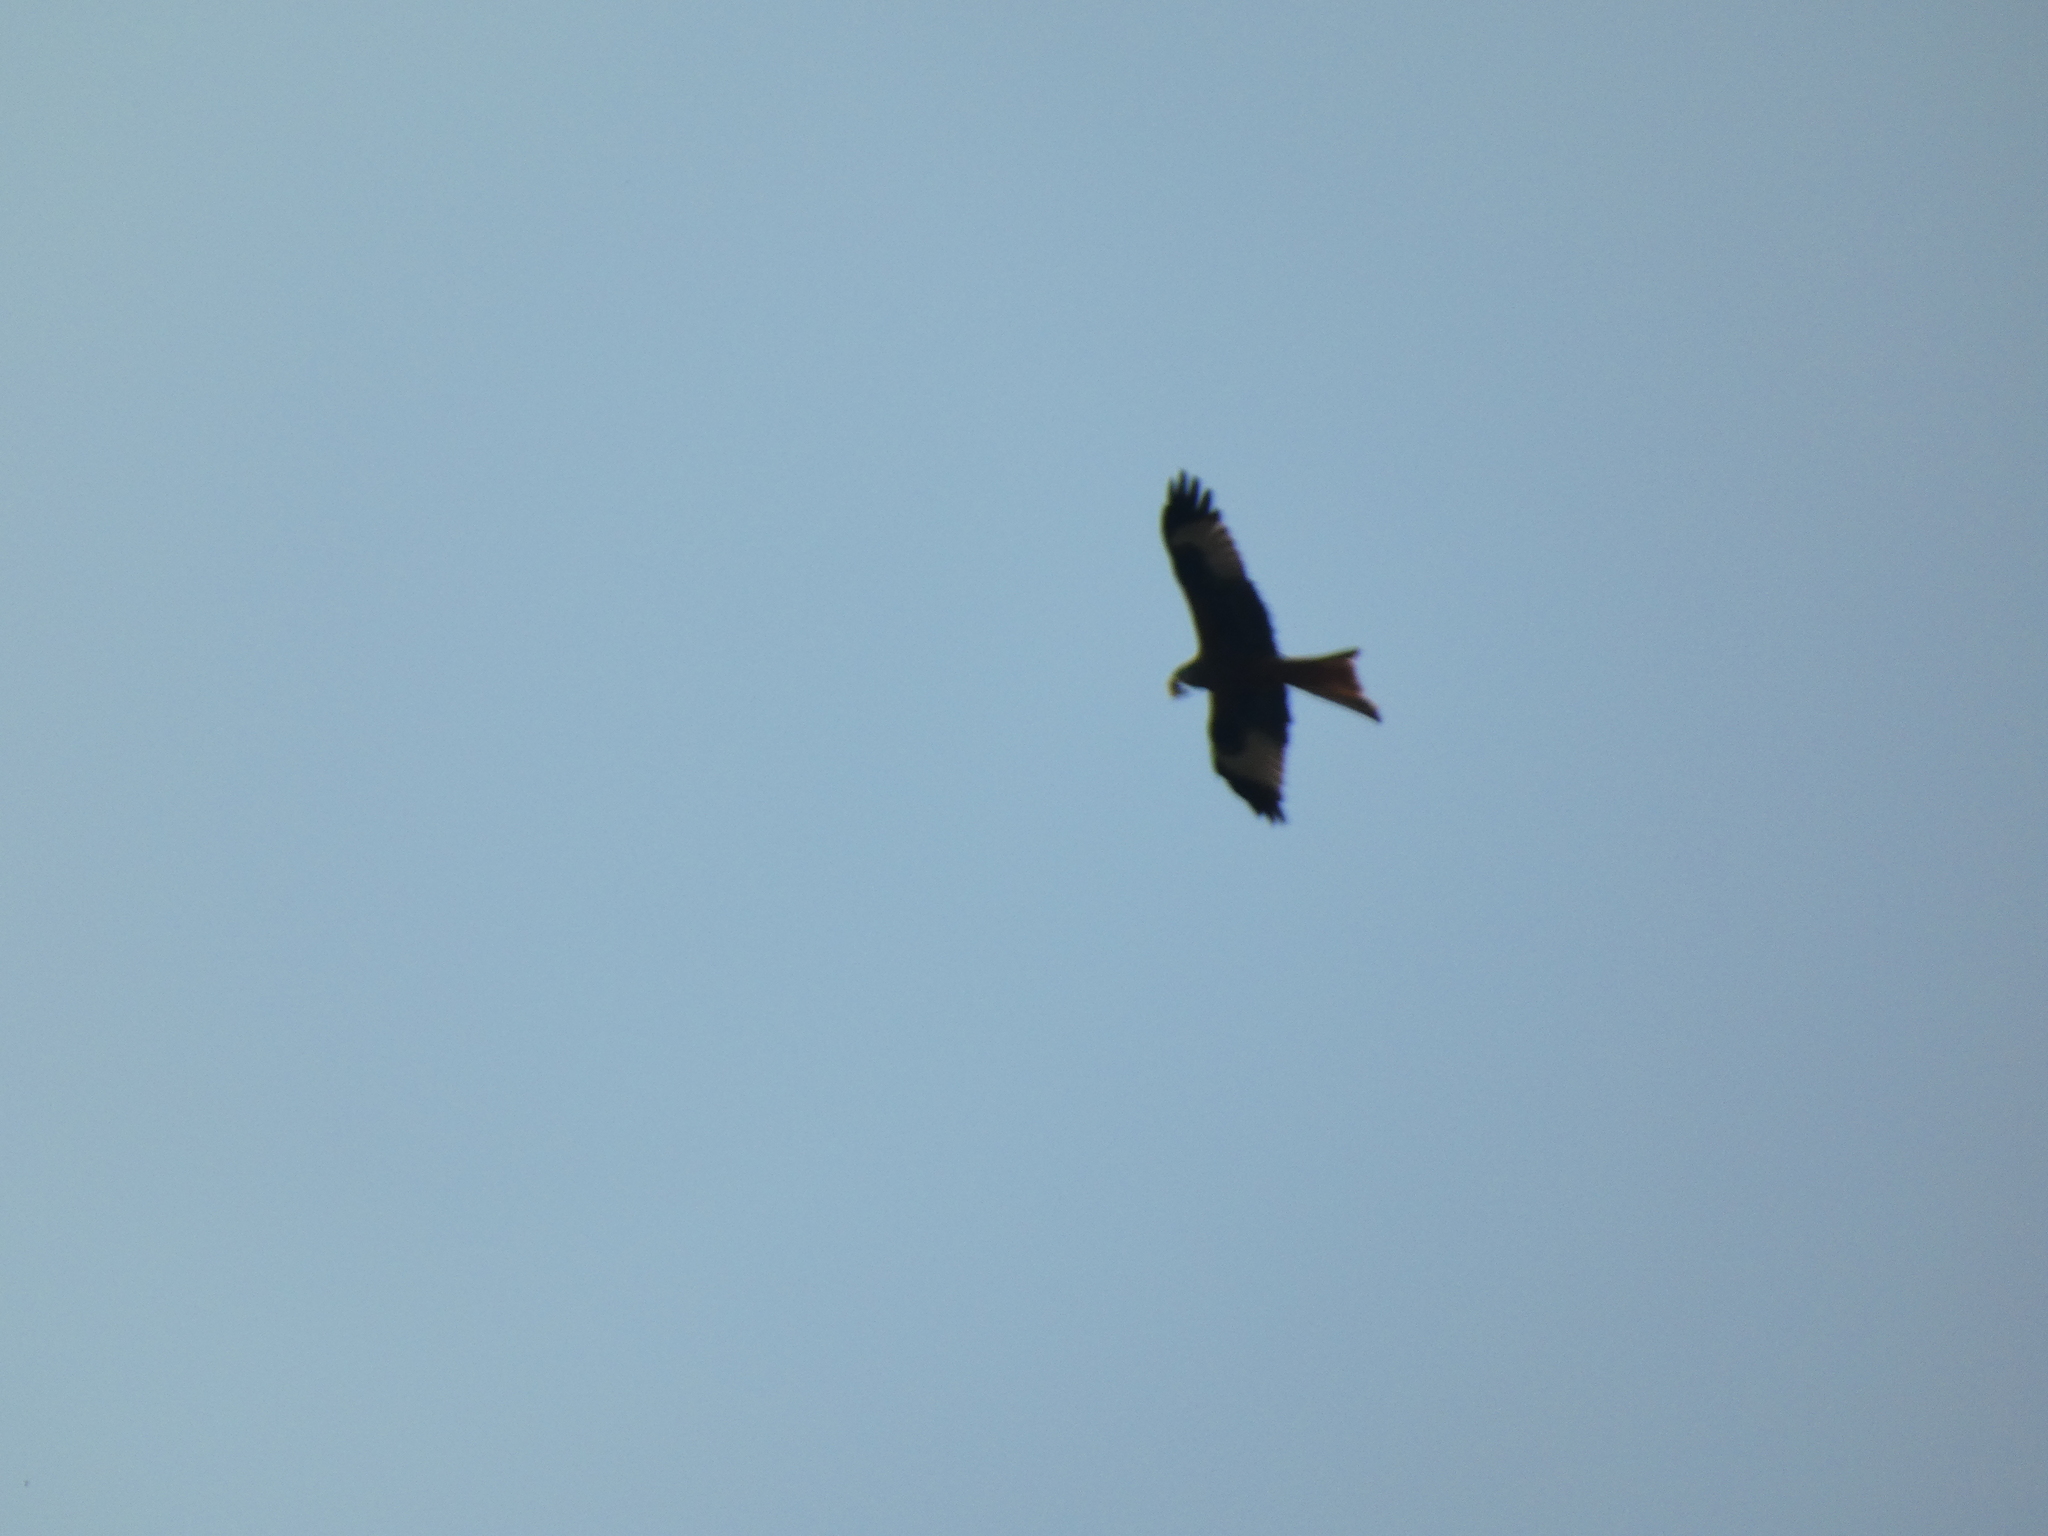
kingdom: Animalia
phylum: Chordata
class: Aves
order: Accipitriformes
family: Accipitridae
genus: Milvus
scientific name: Milvus milvus
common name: Red kite
